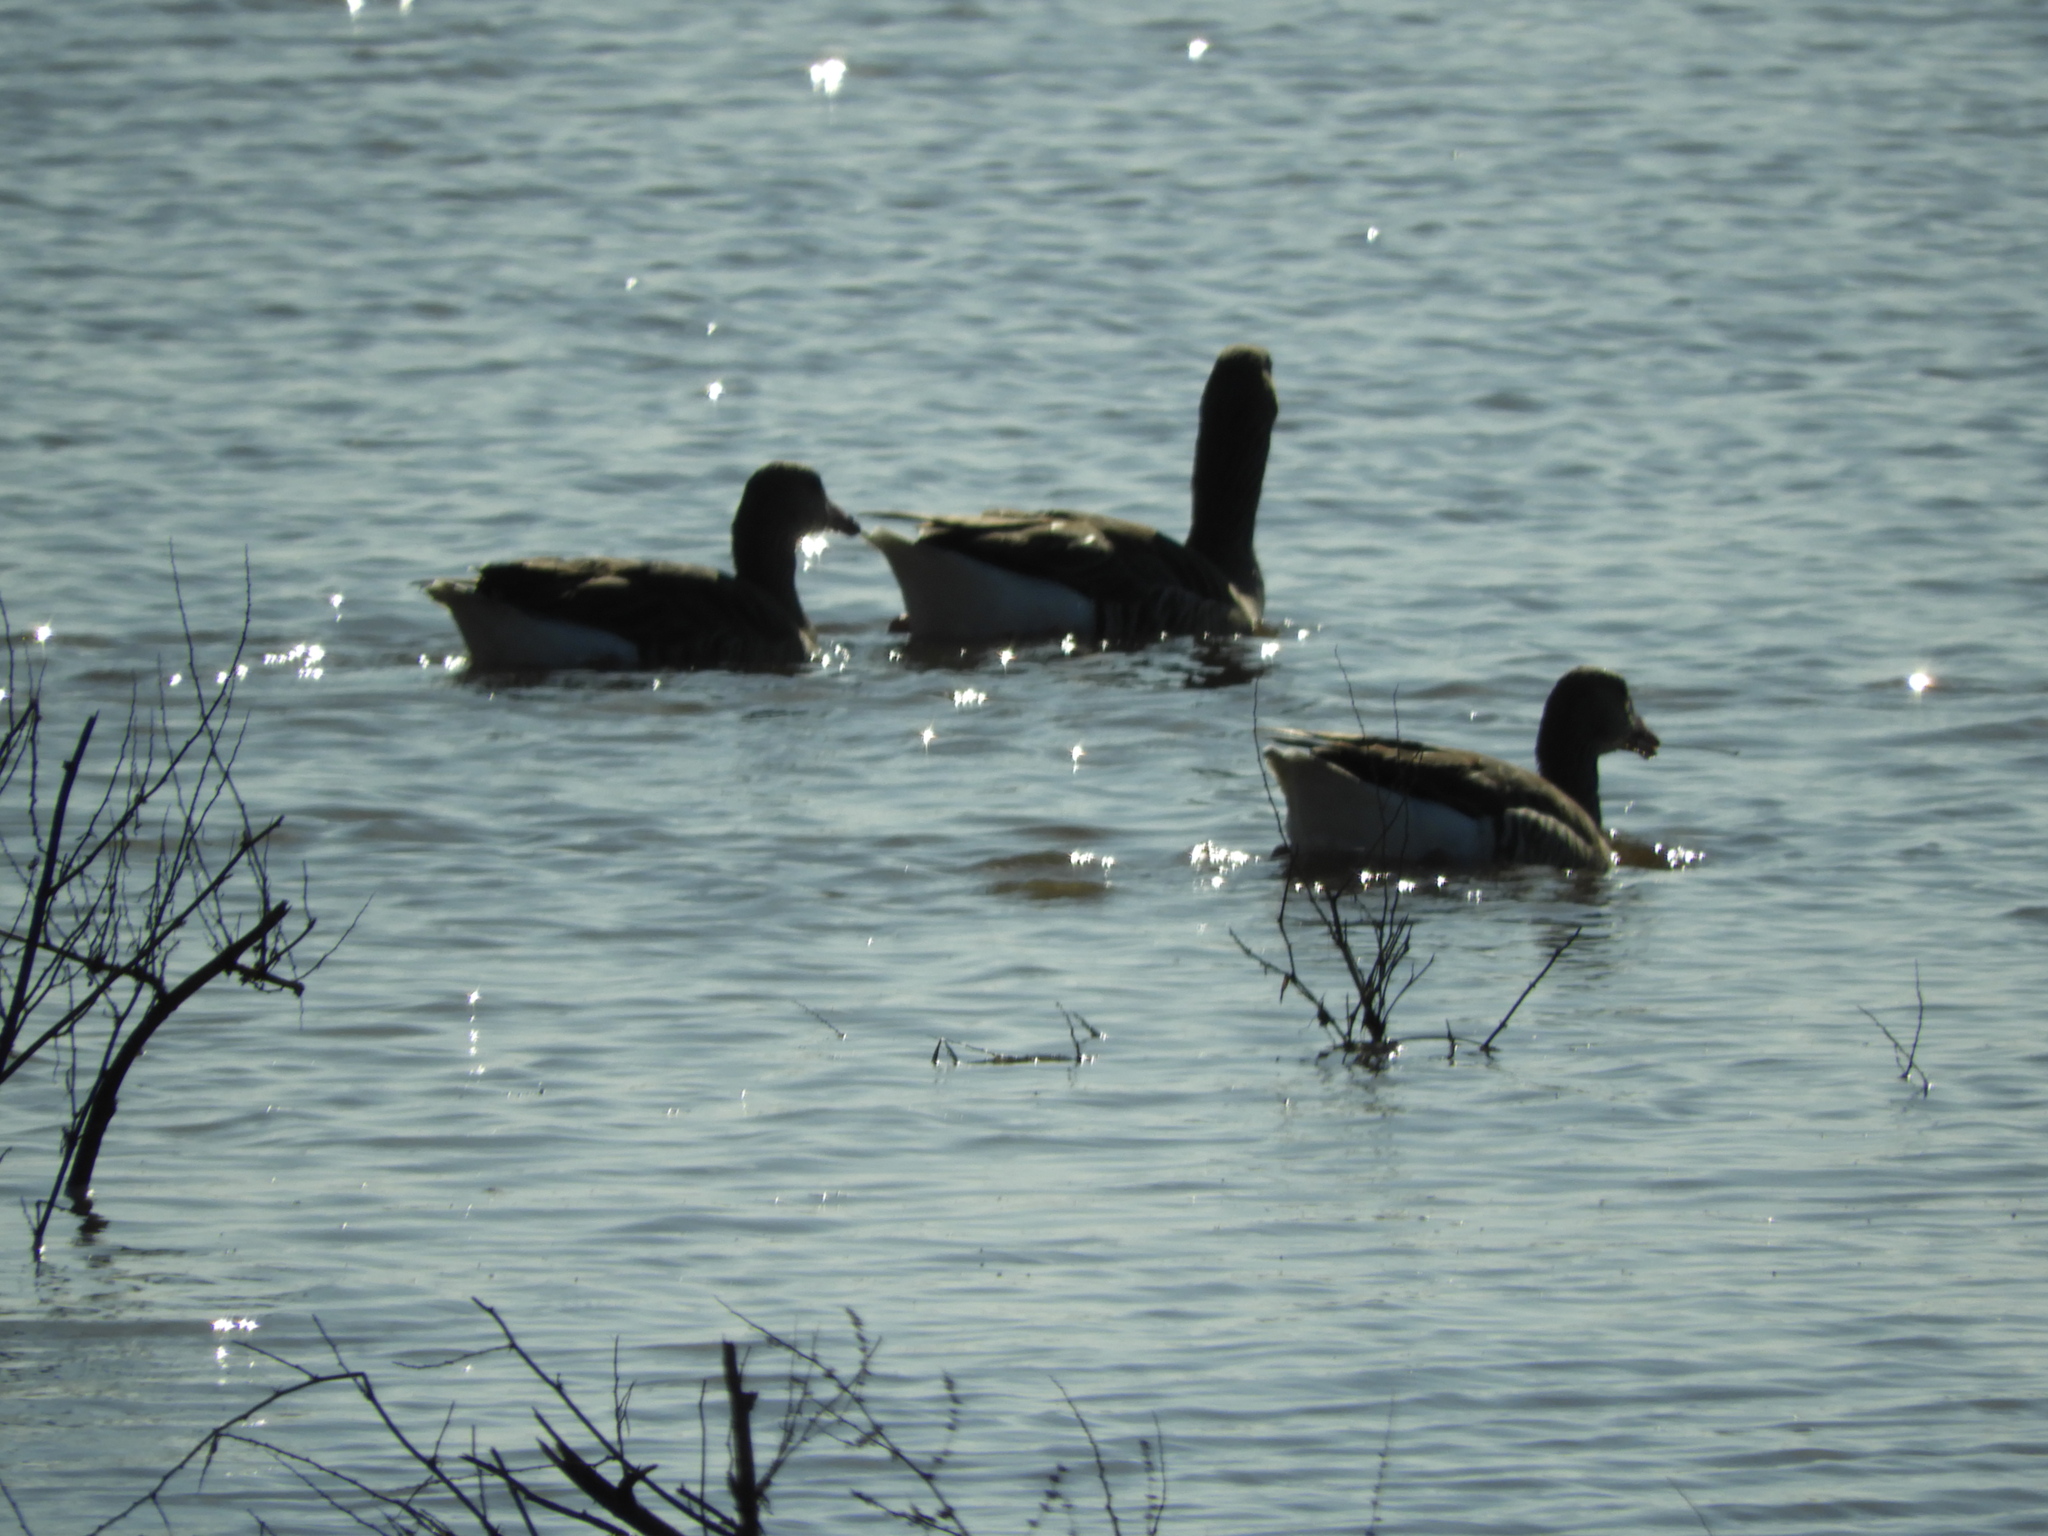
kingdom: Animalia
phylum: Chordata
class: Aves
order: Anseriformes
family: Anatidae
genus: Anser
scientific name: Anser anser
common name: Greylag goose
